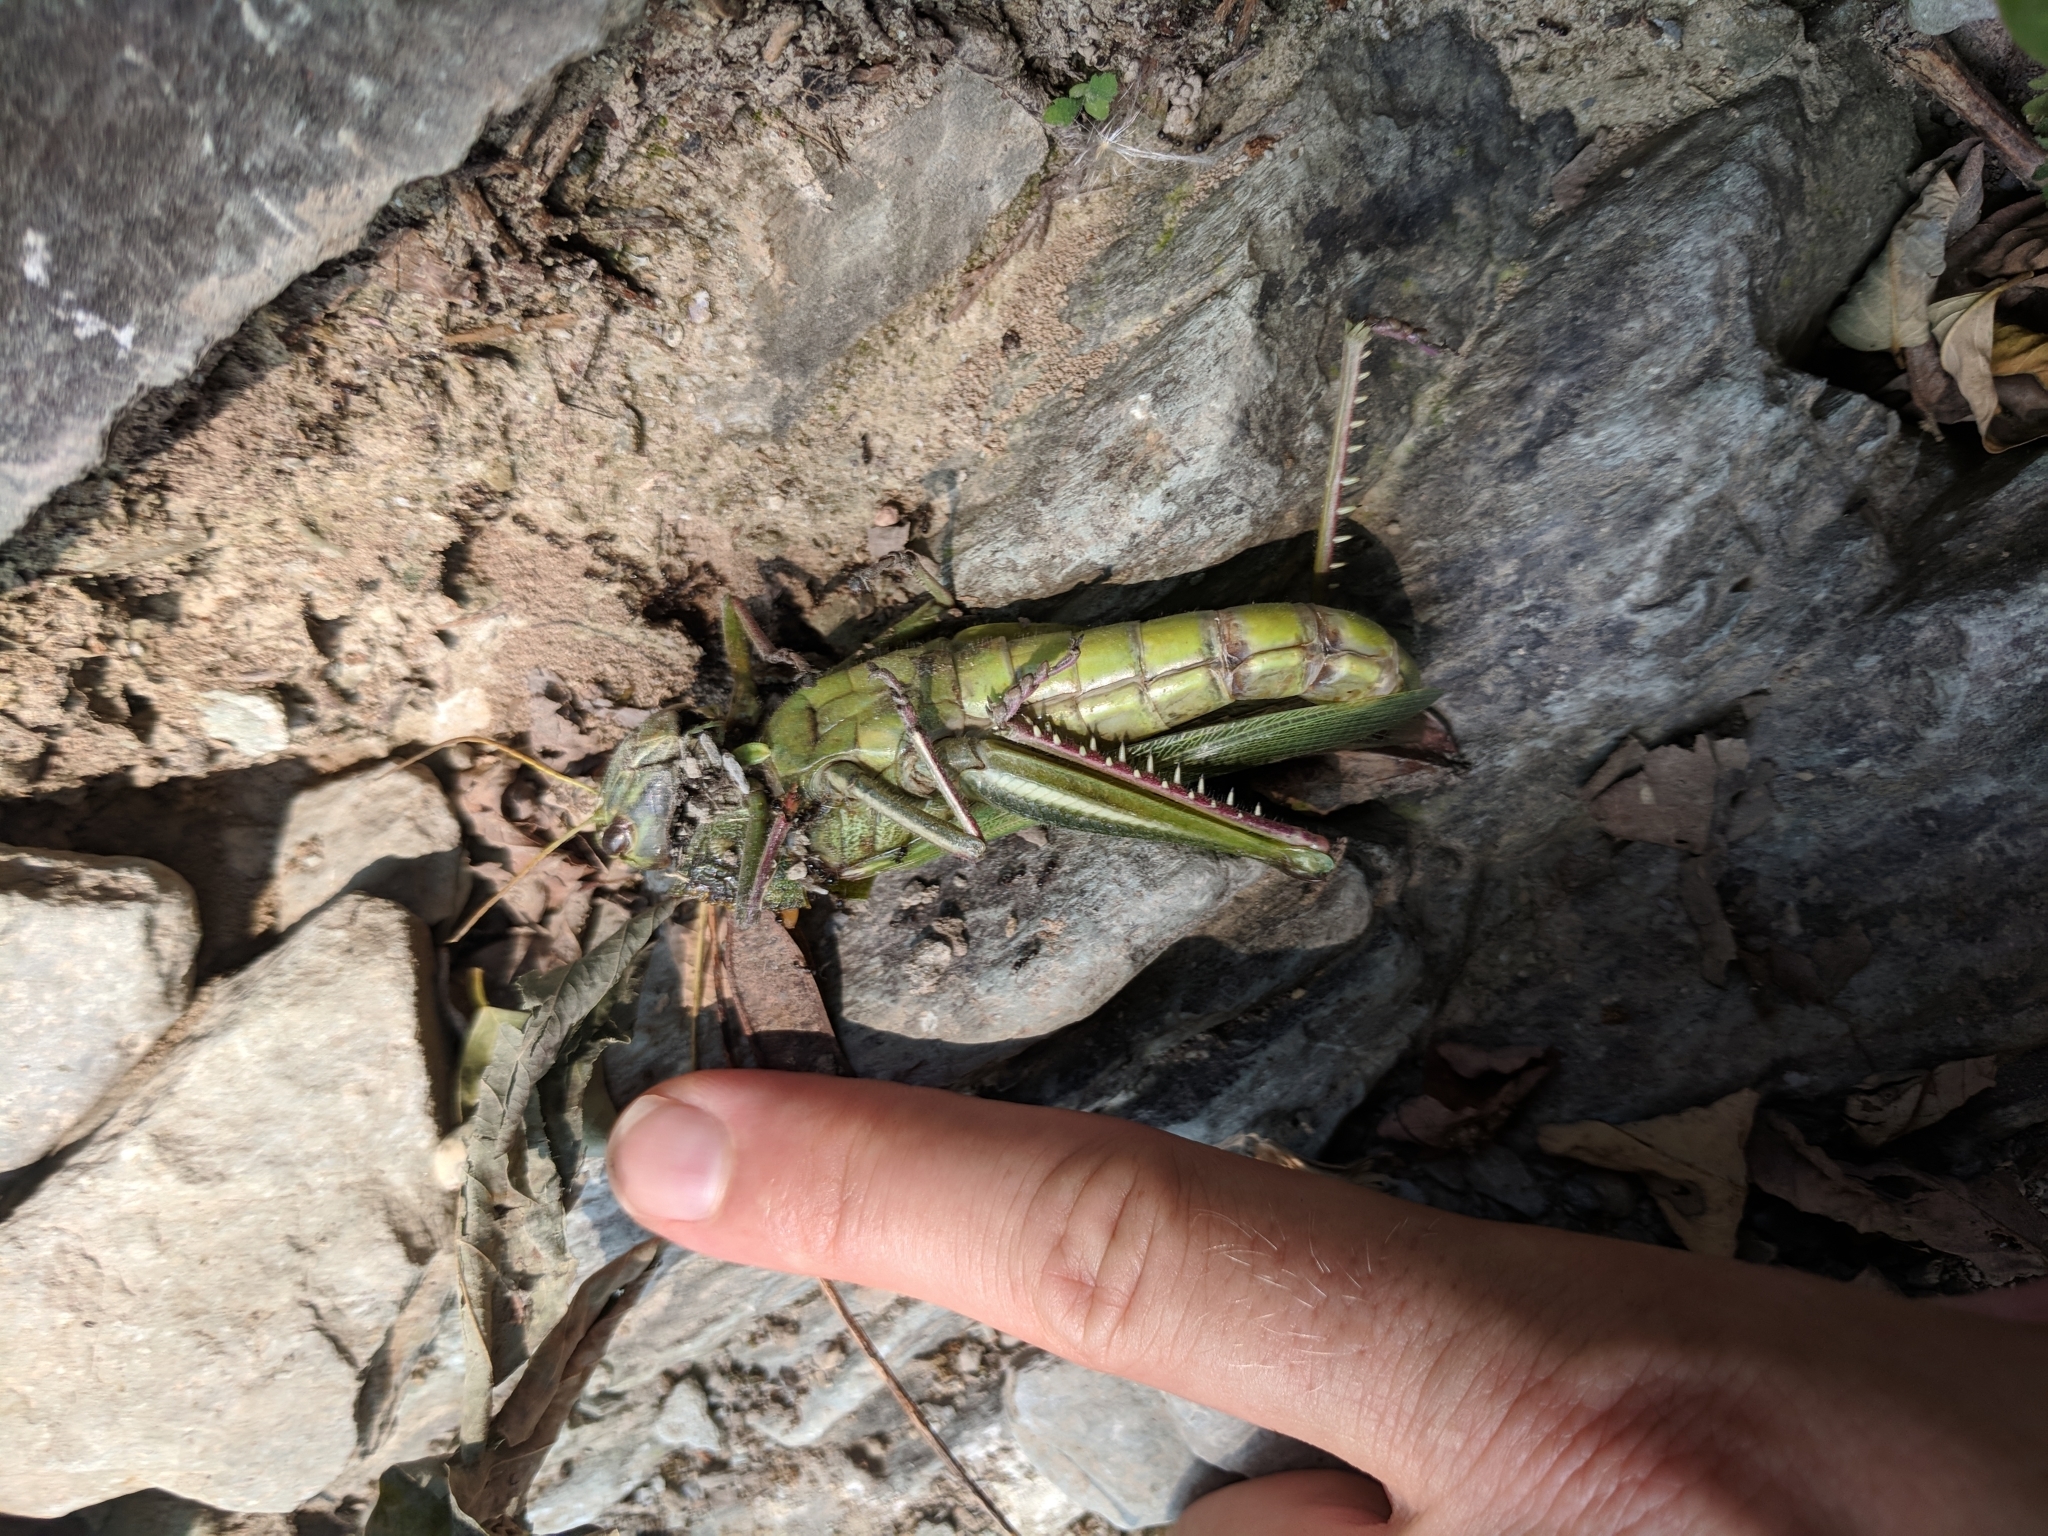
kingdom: Animalia
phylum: Arthropoda
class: Insecta
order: Orthoptera
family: Acrididae
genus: Chondracris
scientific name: Chondracris rosea
